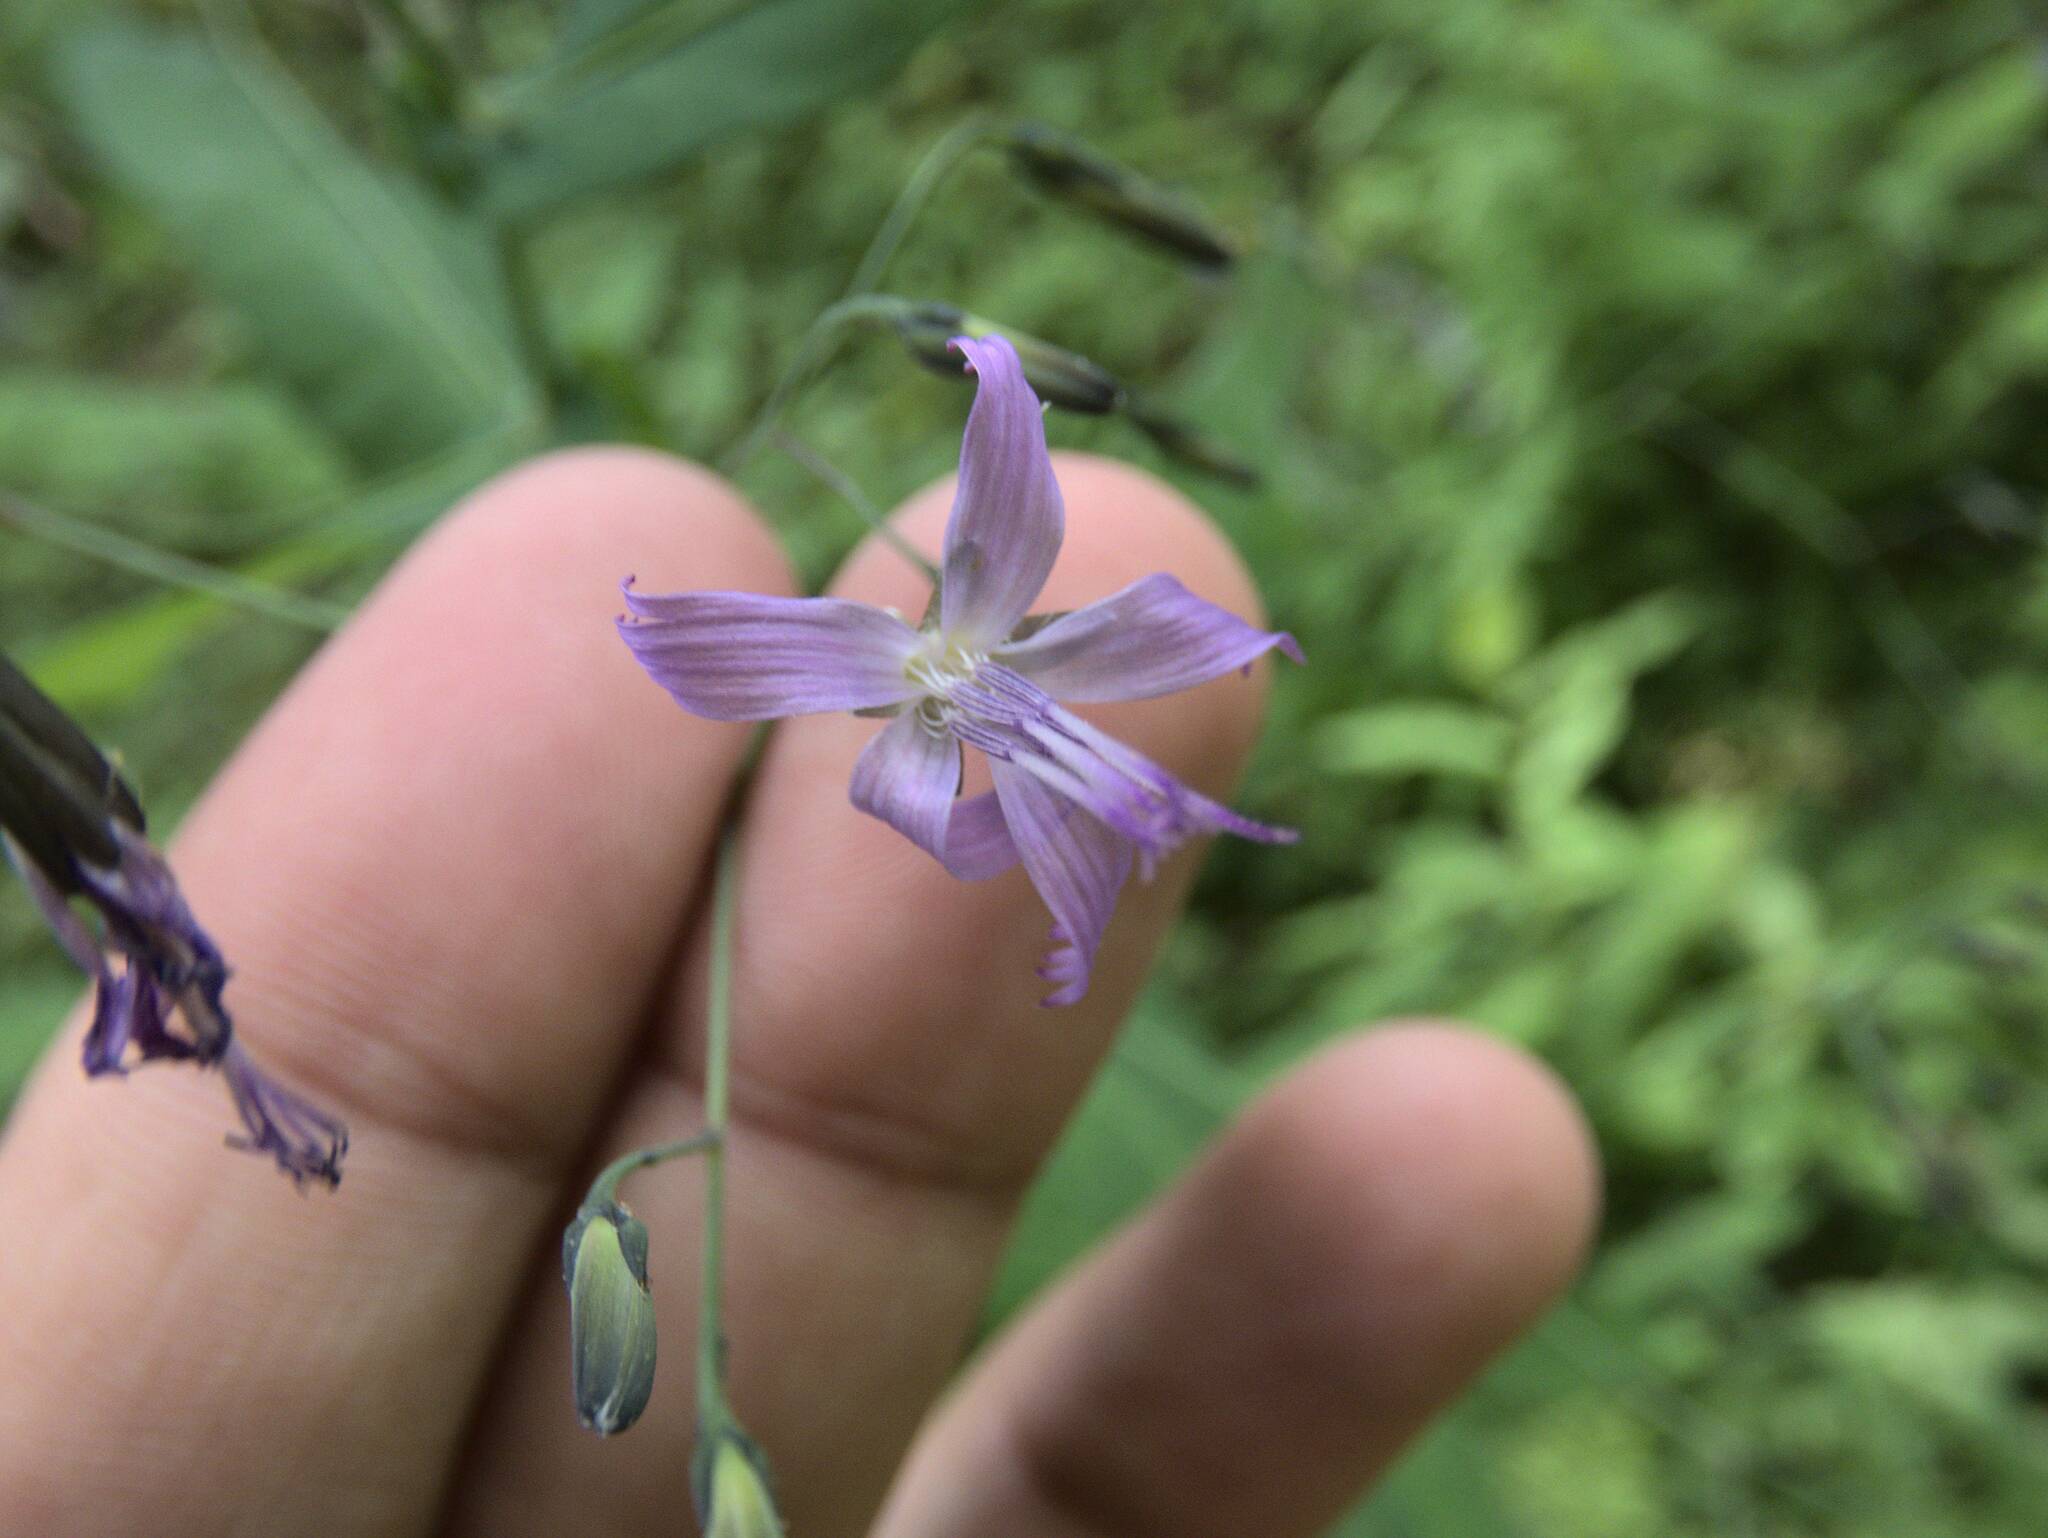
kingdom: Plantae
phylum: Tracheophyta
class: Magnoliopsida
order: Asterales
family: Asteraceae
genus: Prenanthes
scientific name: Prenanthes purpurea
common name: Purple lettuce
